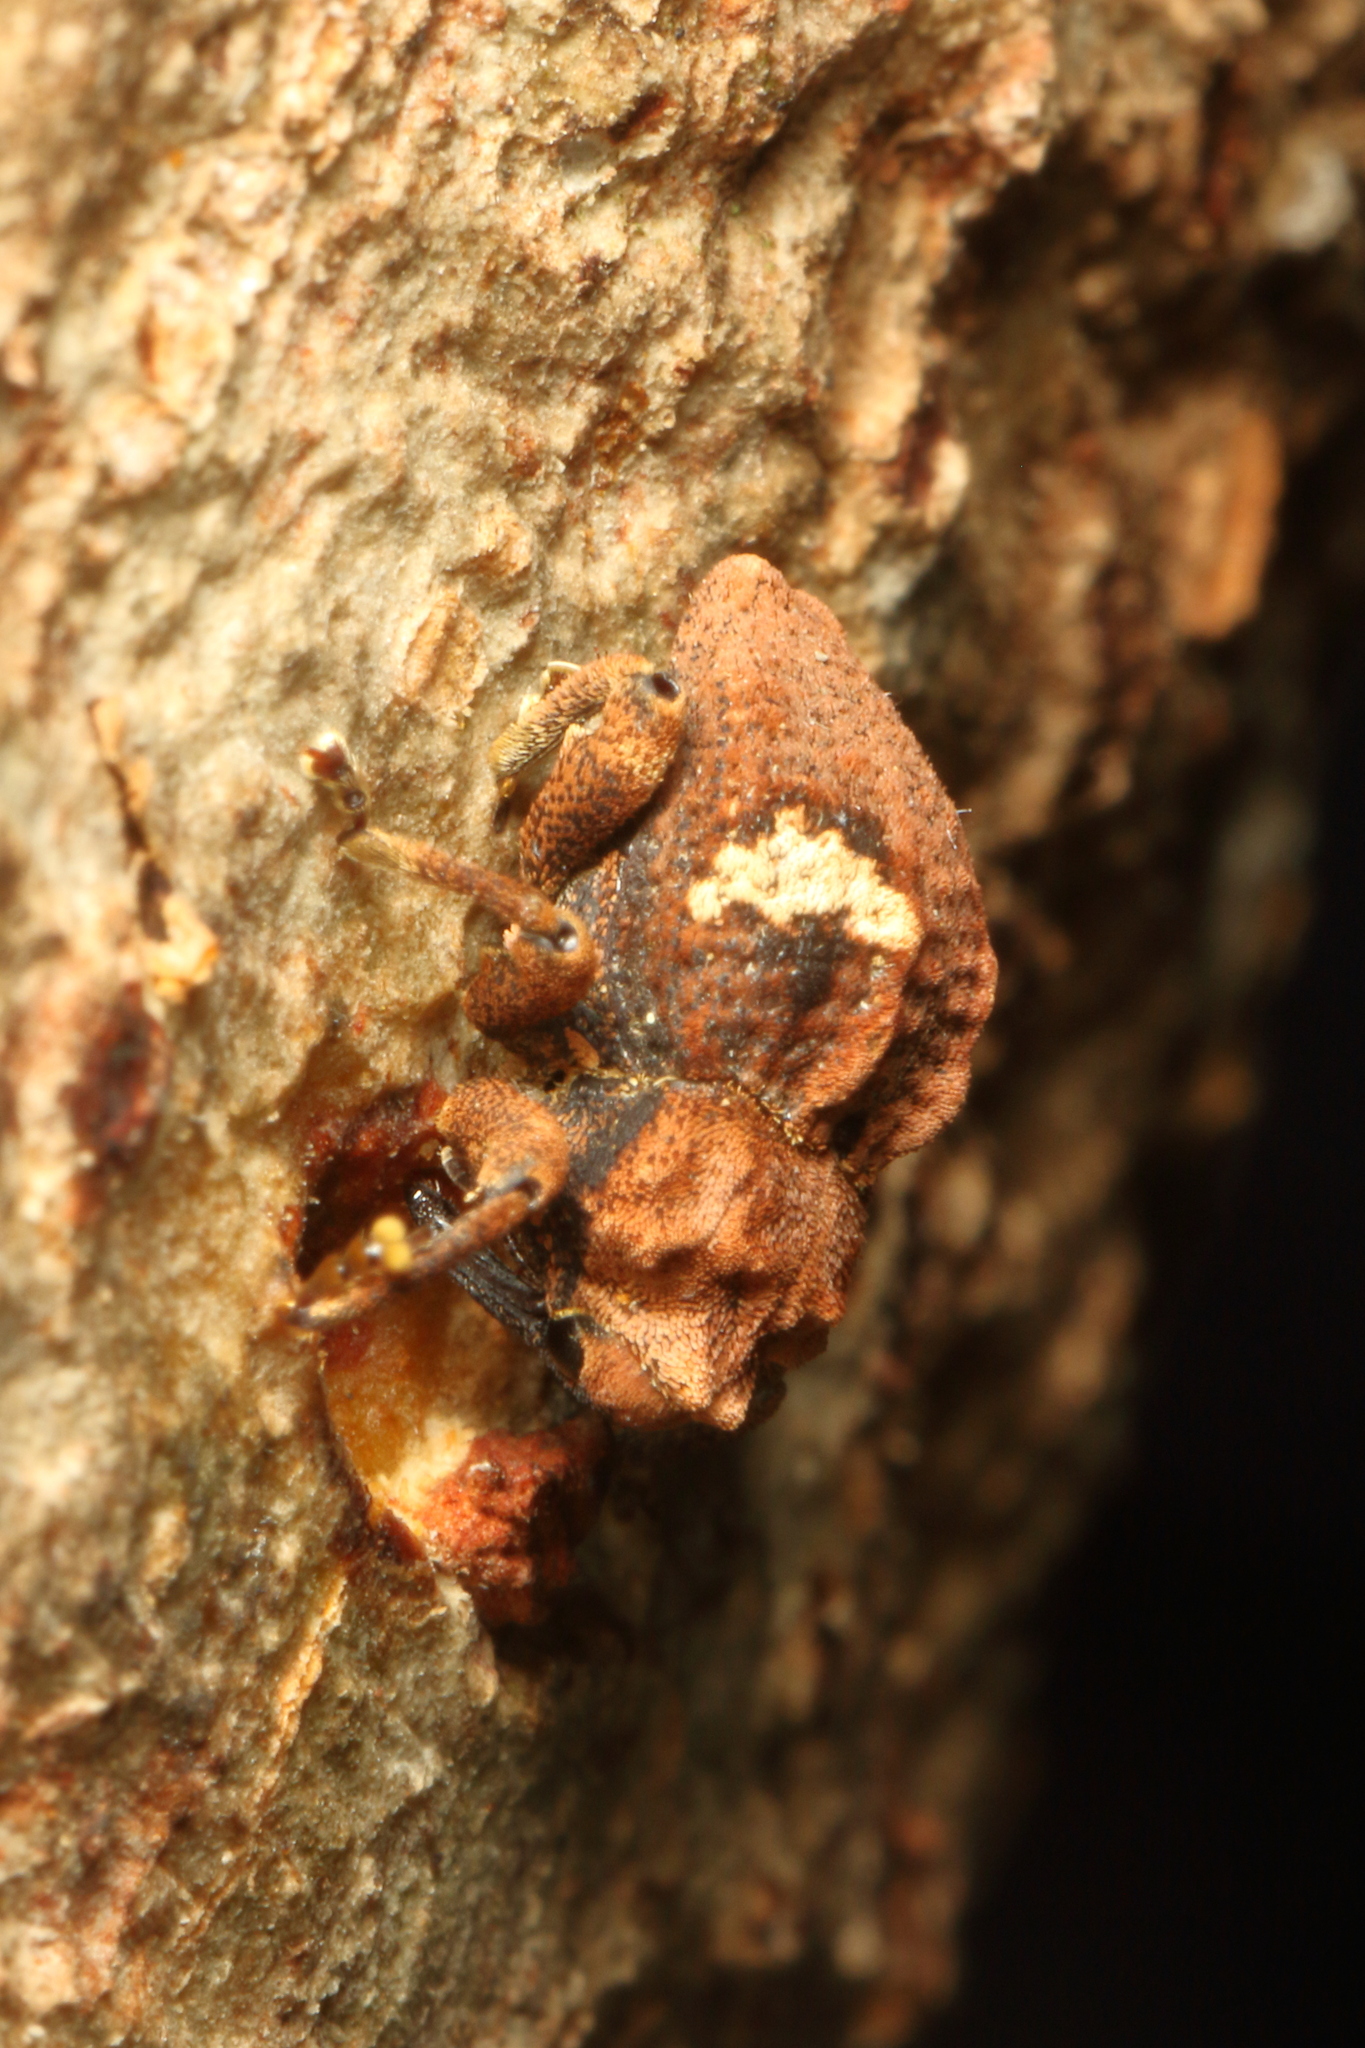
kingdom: Animalia
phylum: Arthropoda
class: Insecta
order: Coleoptera
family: Curculionidae
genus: Sympedius
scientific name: Sympedius bufo
